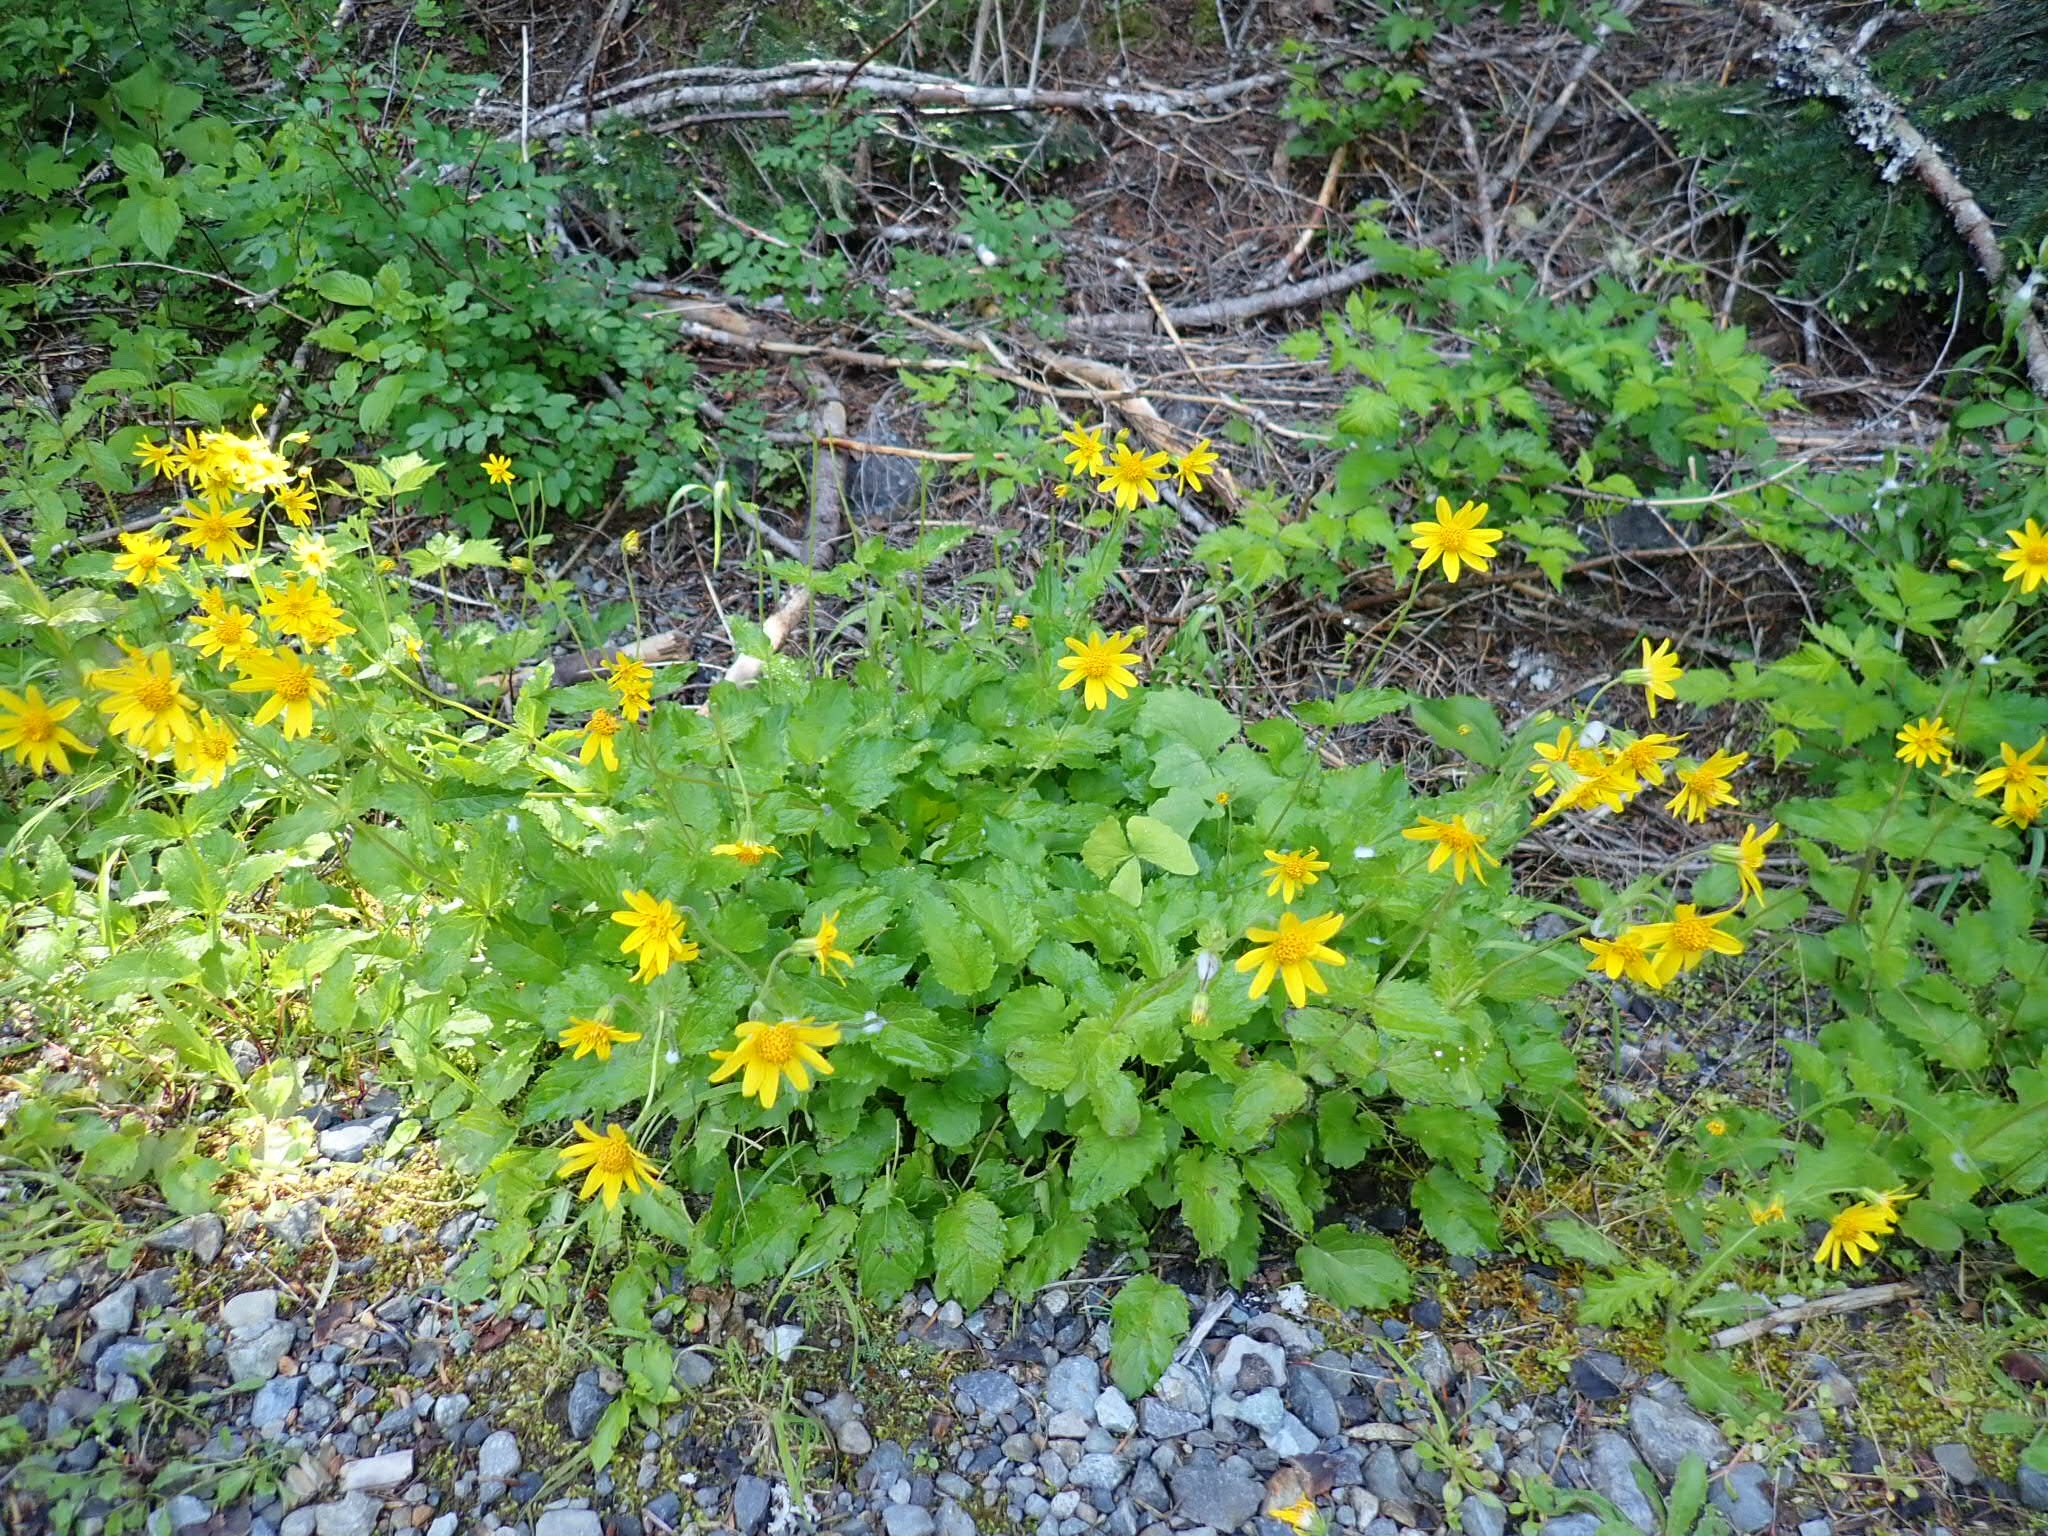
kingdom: Plantae
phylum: Tracheophyta
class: Magnoliopsida
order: Asterales
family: Asteraceae
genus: Arnica
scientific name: Arnica latifolia
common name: Arnica
